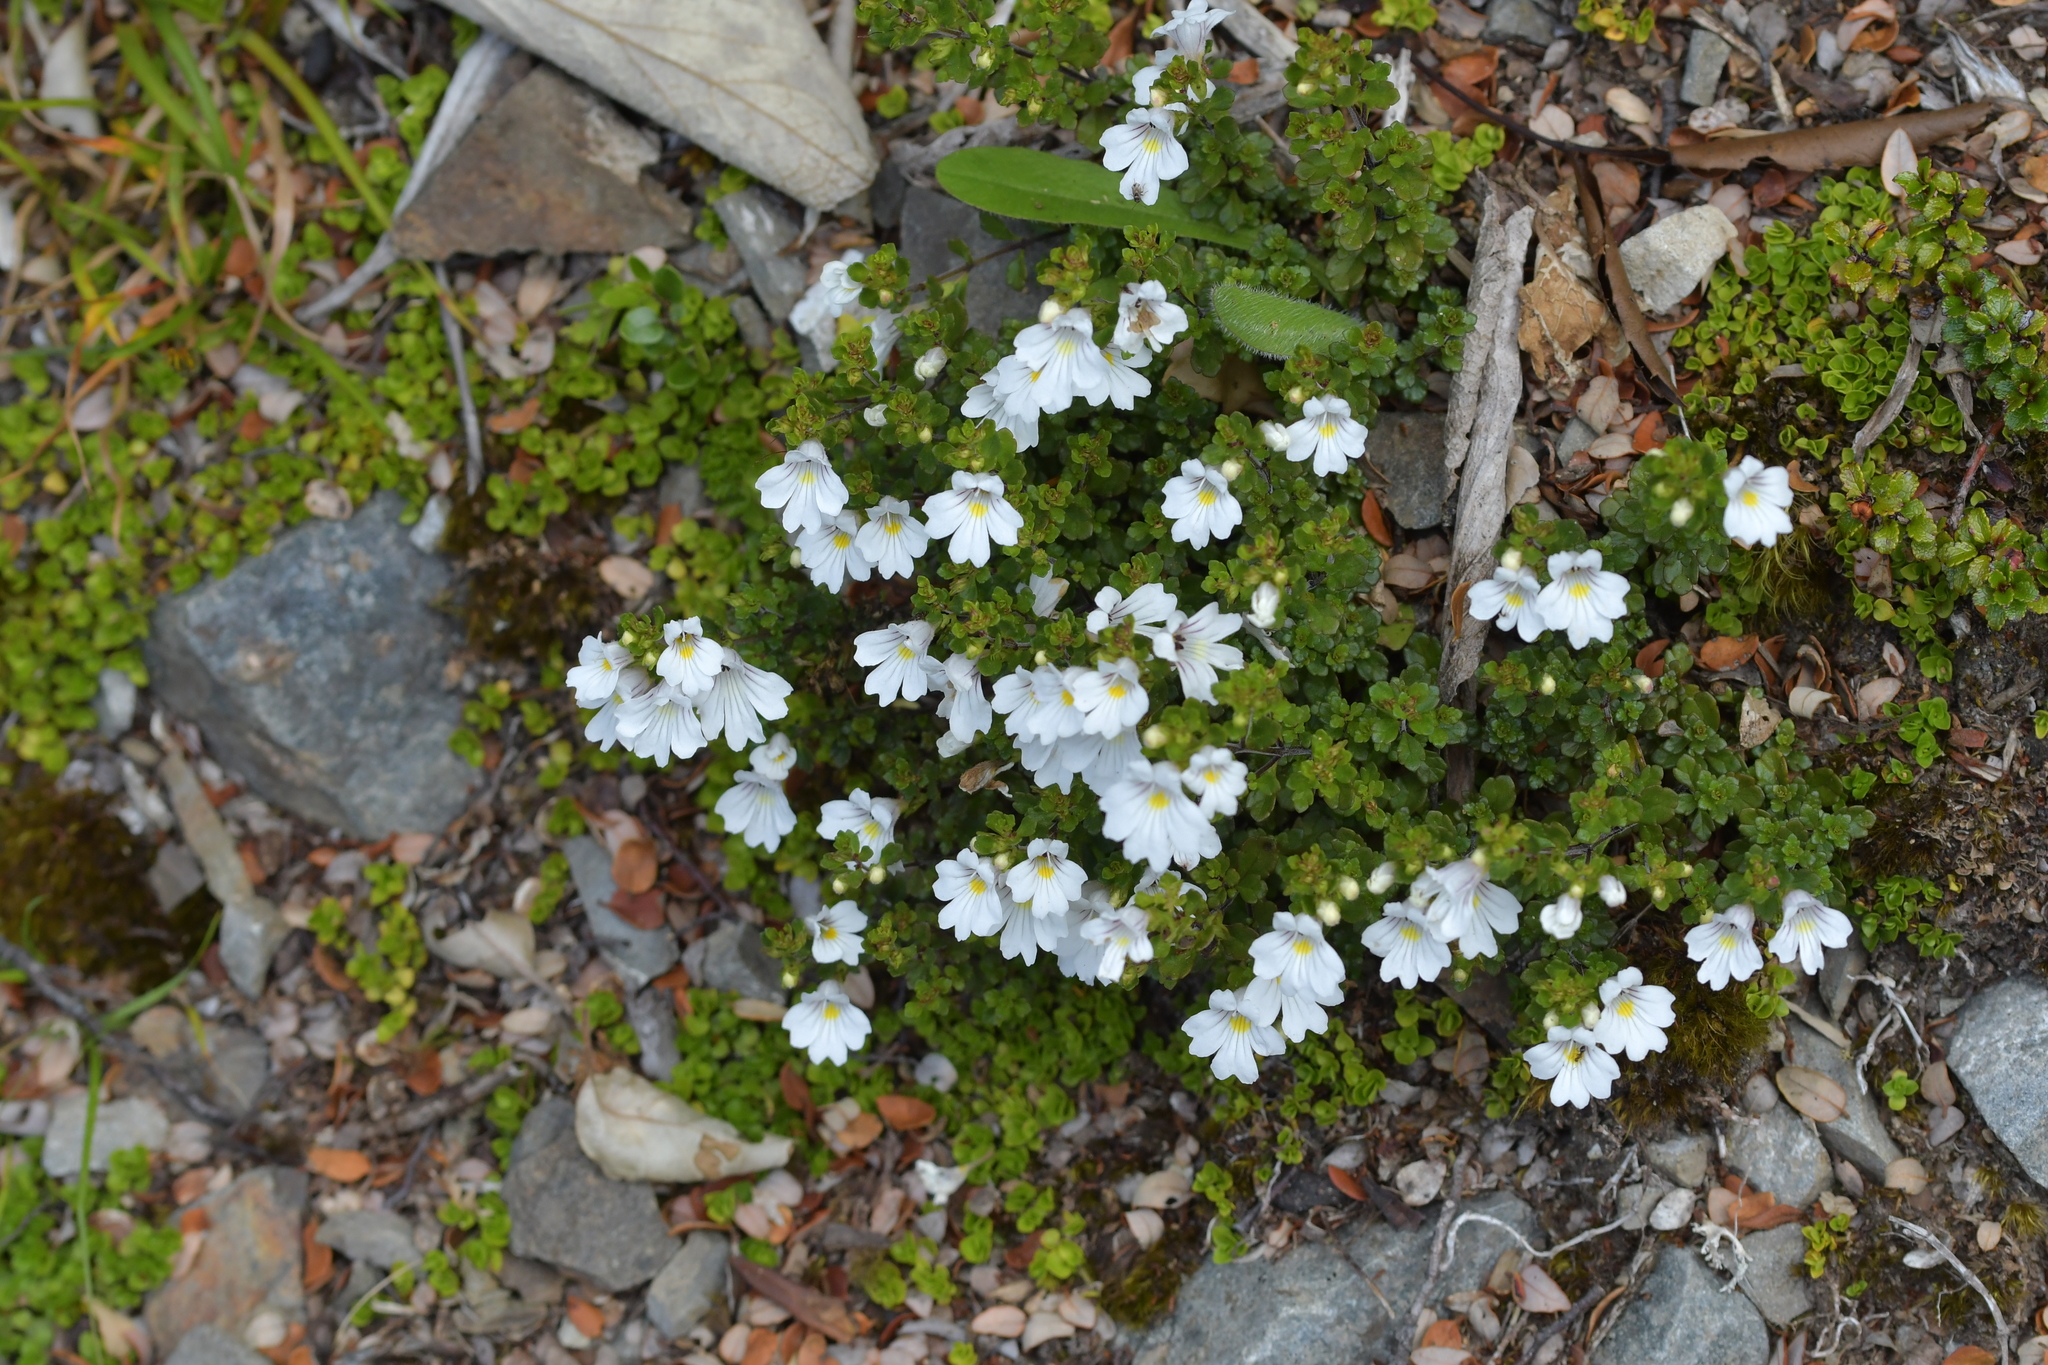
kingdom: Plantae
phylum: Tracheophyta
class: Magnoliopsida
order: Lamiales
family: Orobanchaceae
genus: Euphrasia
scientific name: Euphrasia cuneata
